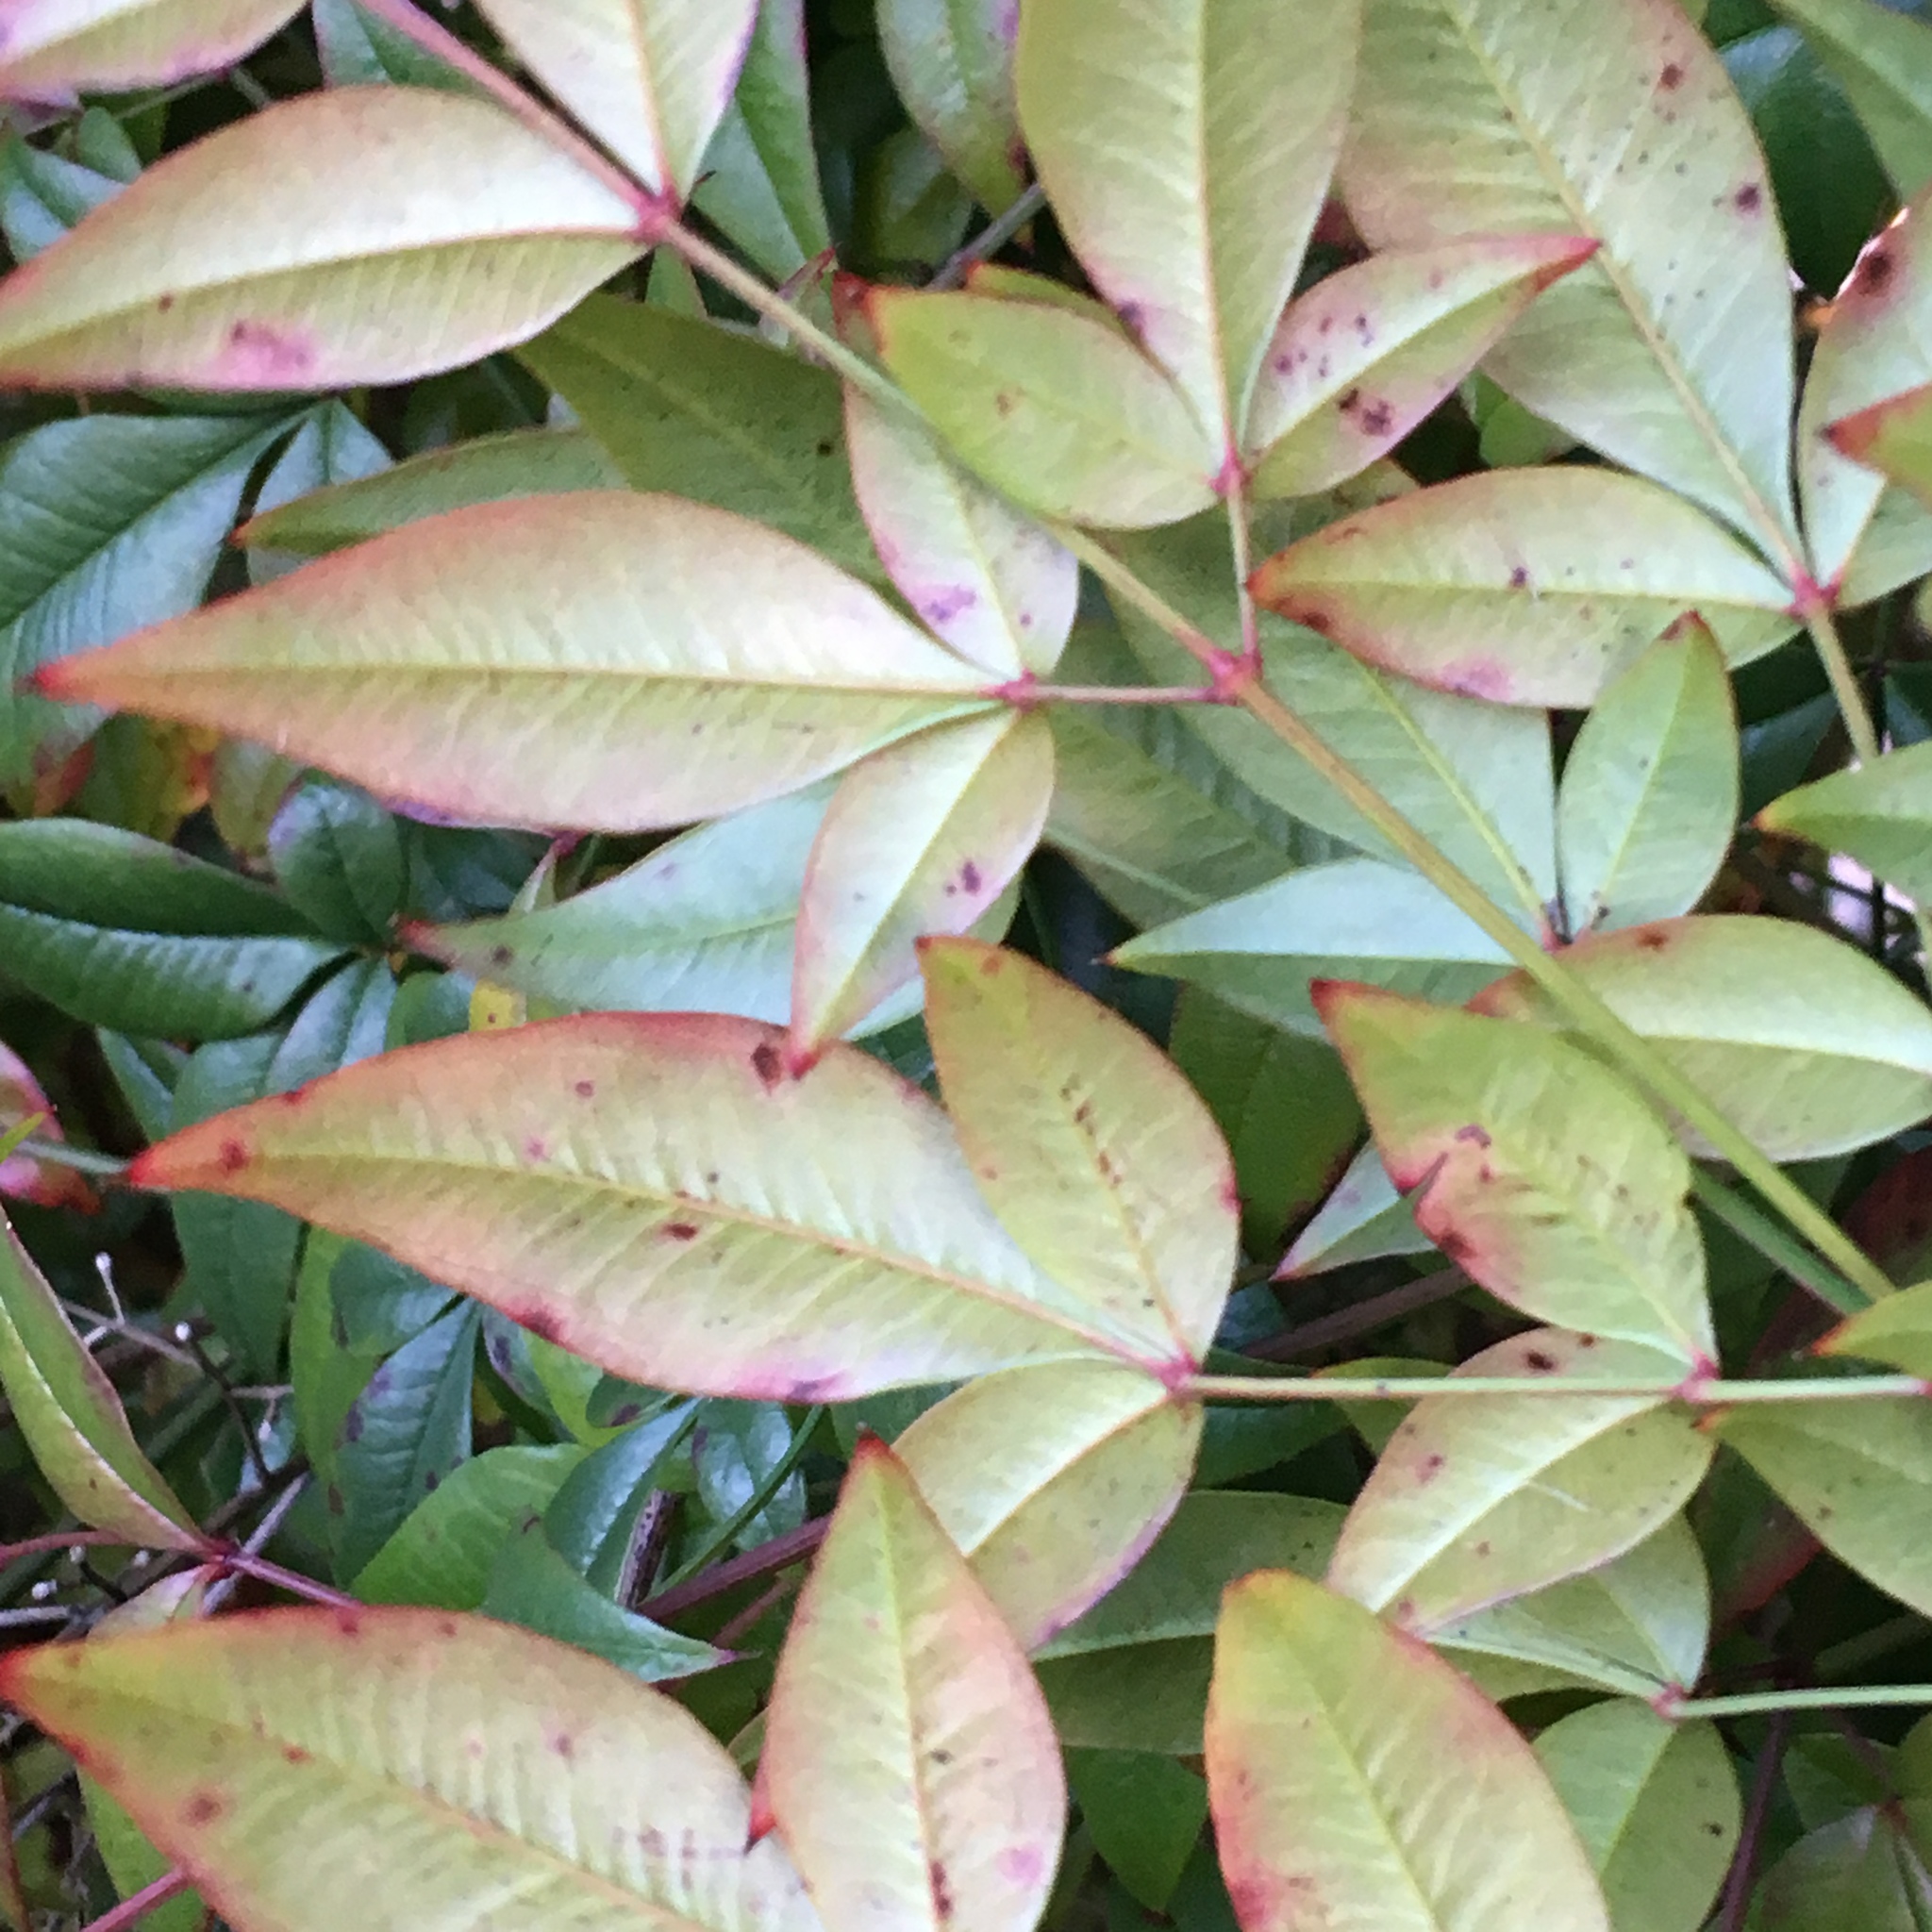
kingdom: Plantae
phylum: Tracheophyta
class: Magnoliopsida
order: Ranunculales
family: Berberidaceae
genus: Nandina
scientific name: Nandina domestica
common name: Sacred bamboo
